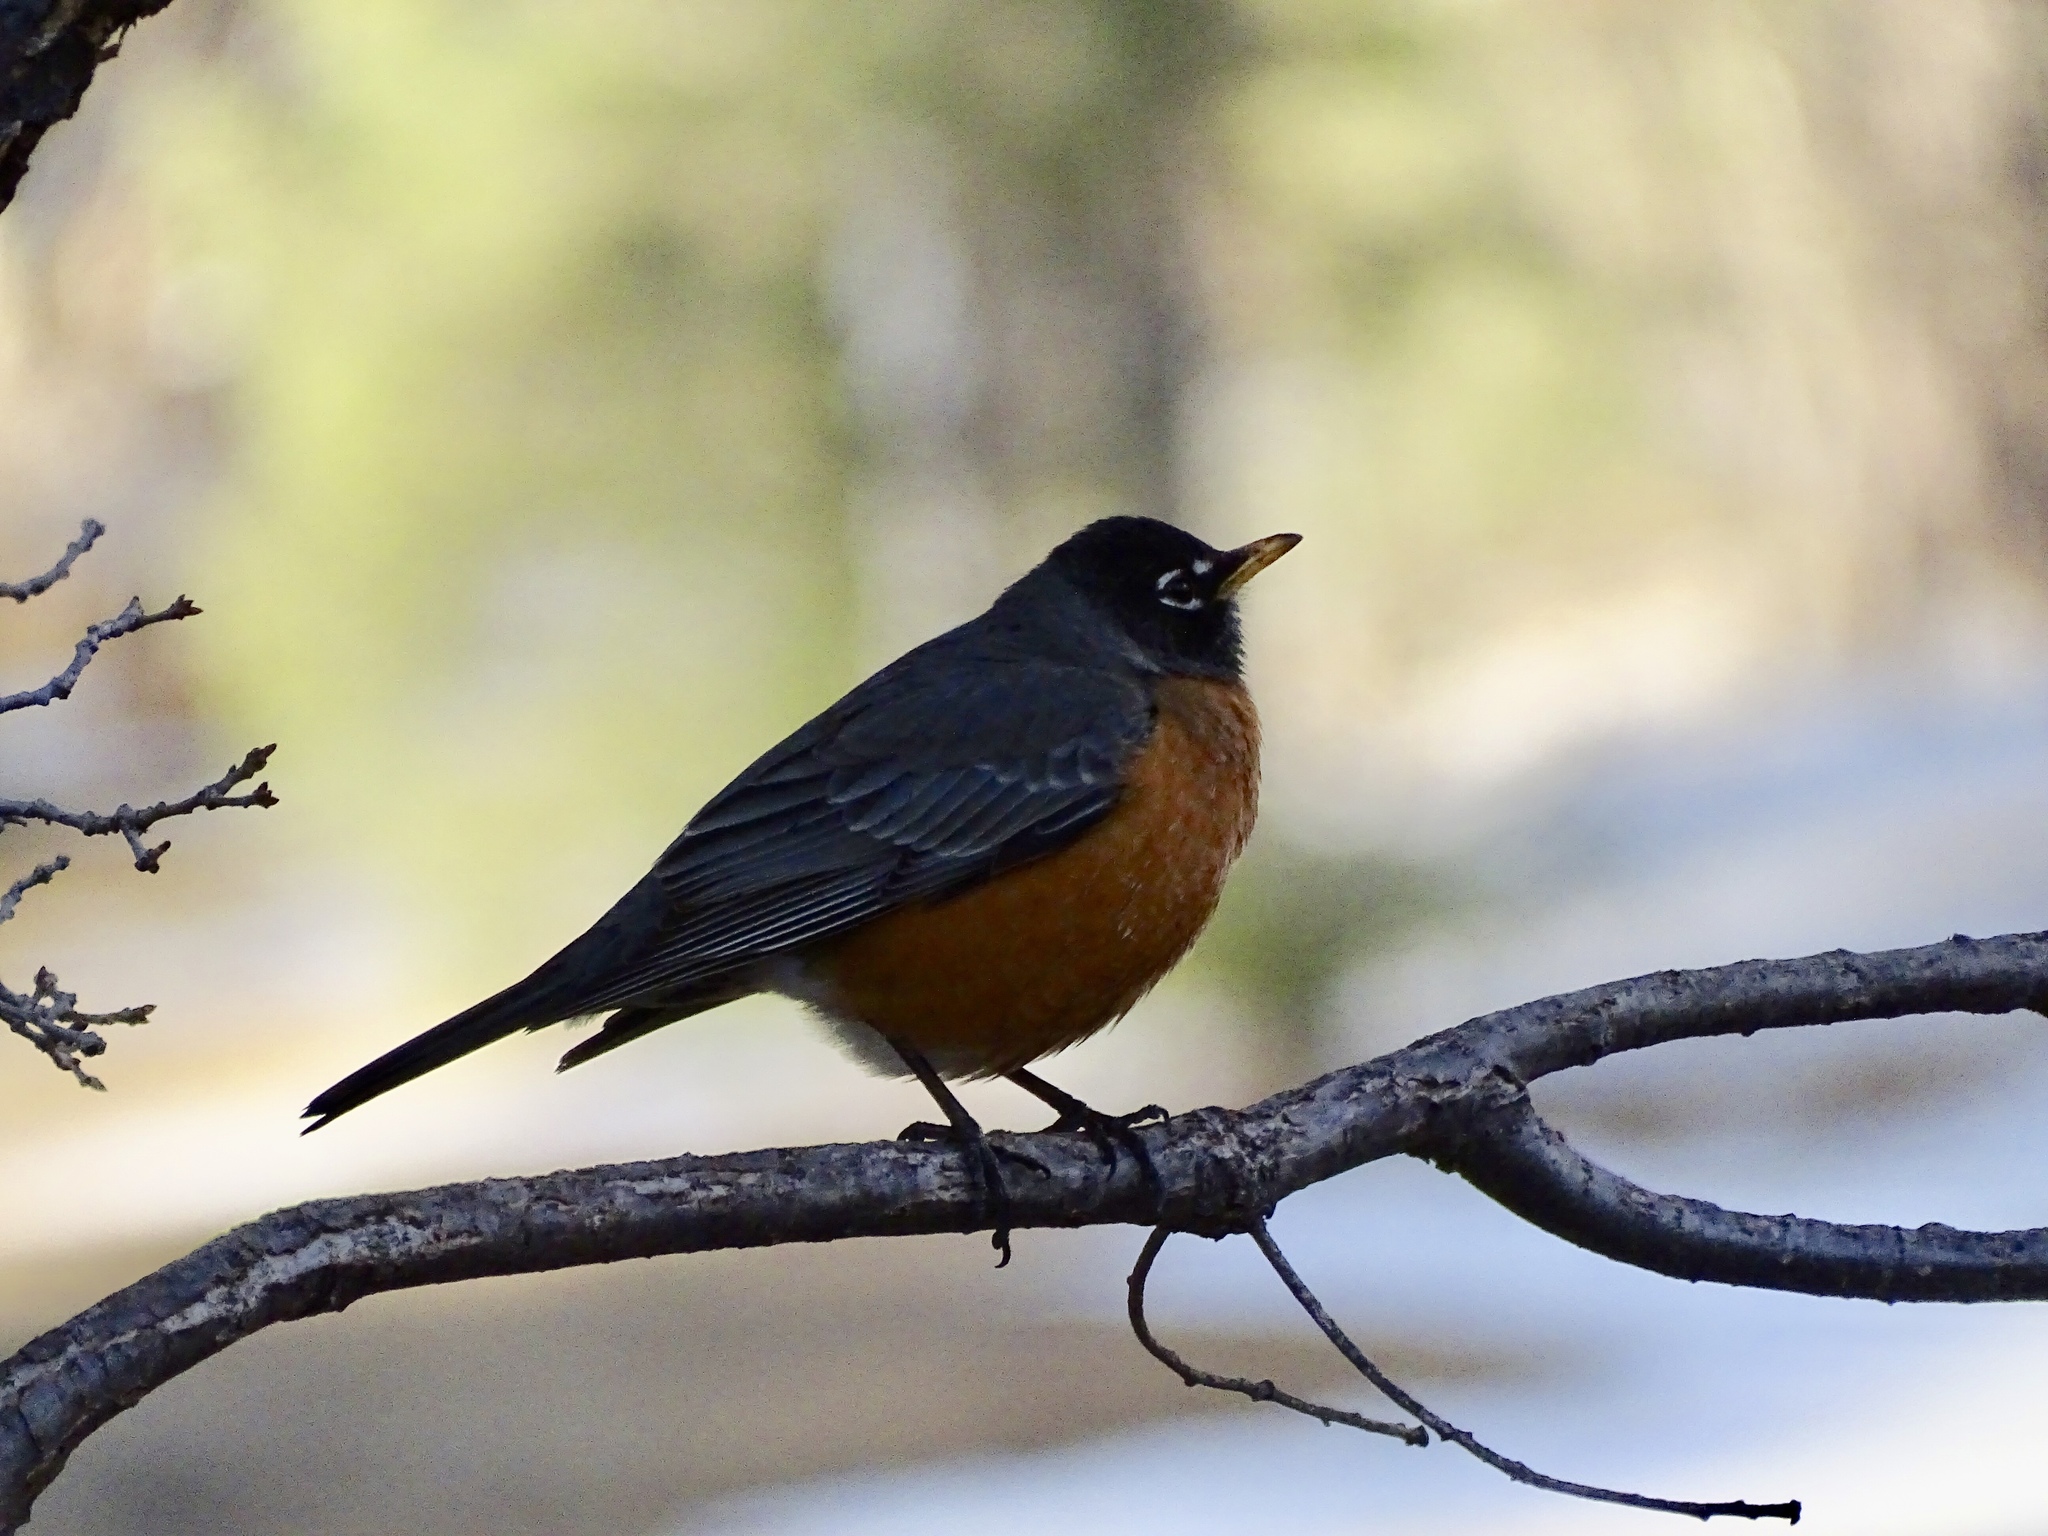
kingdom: Animalia
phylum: Chordata
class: Aves
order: Passeriformes
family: Turdidae
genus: Turdus
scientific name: Turdus migratorius
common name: American robin
